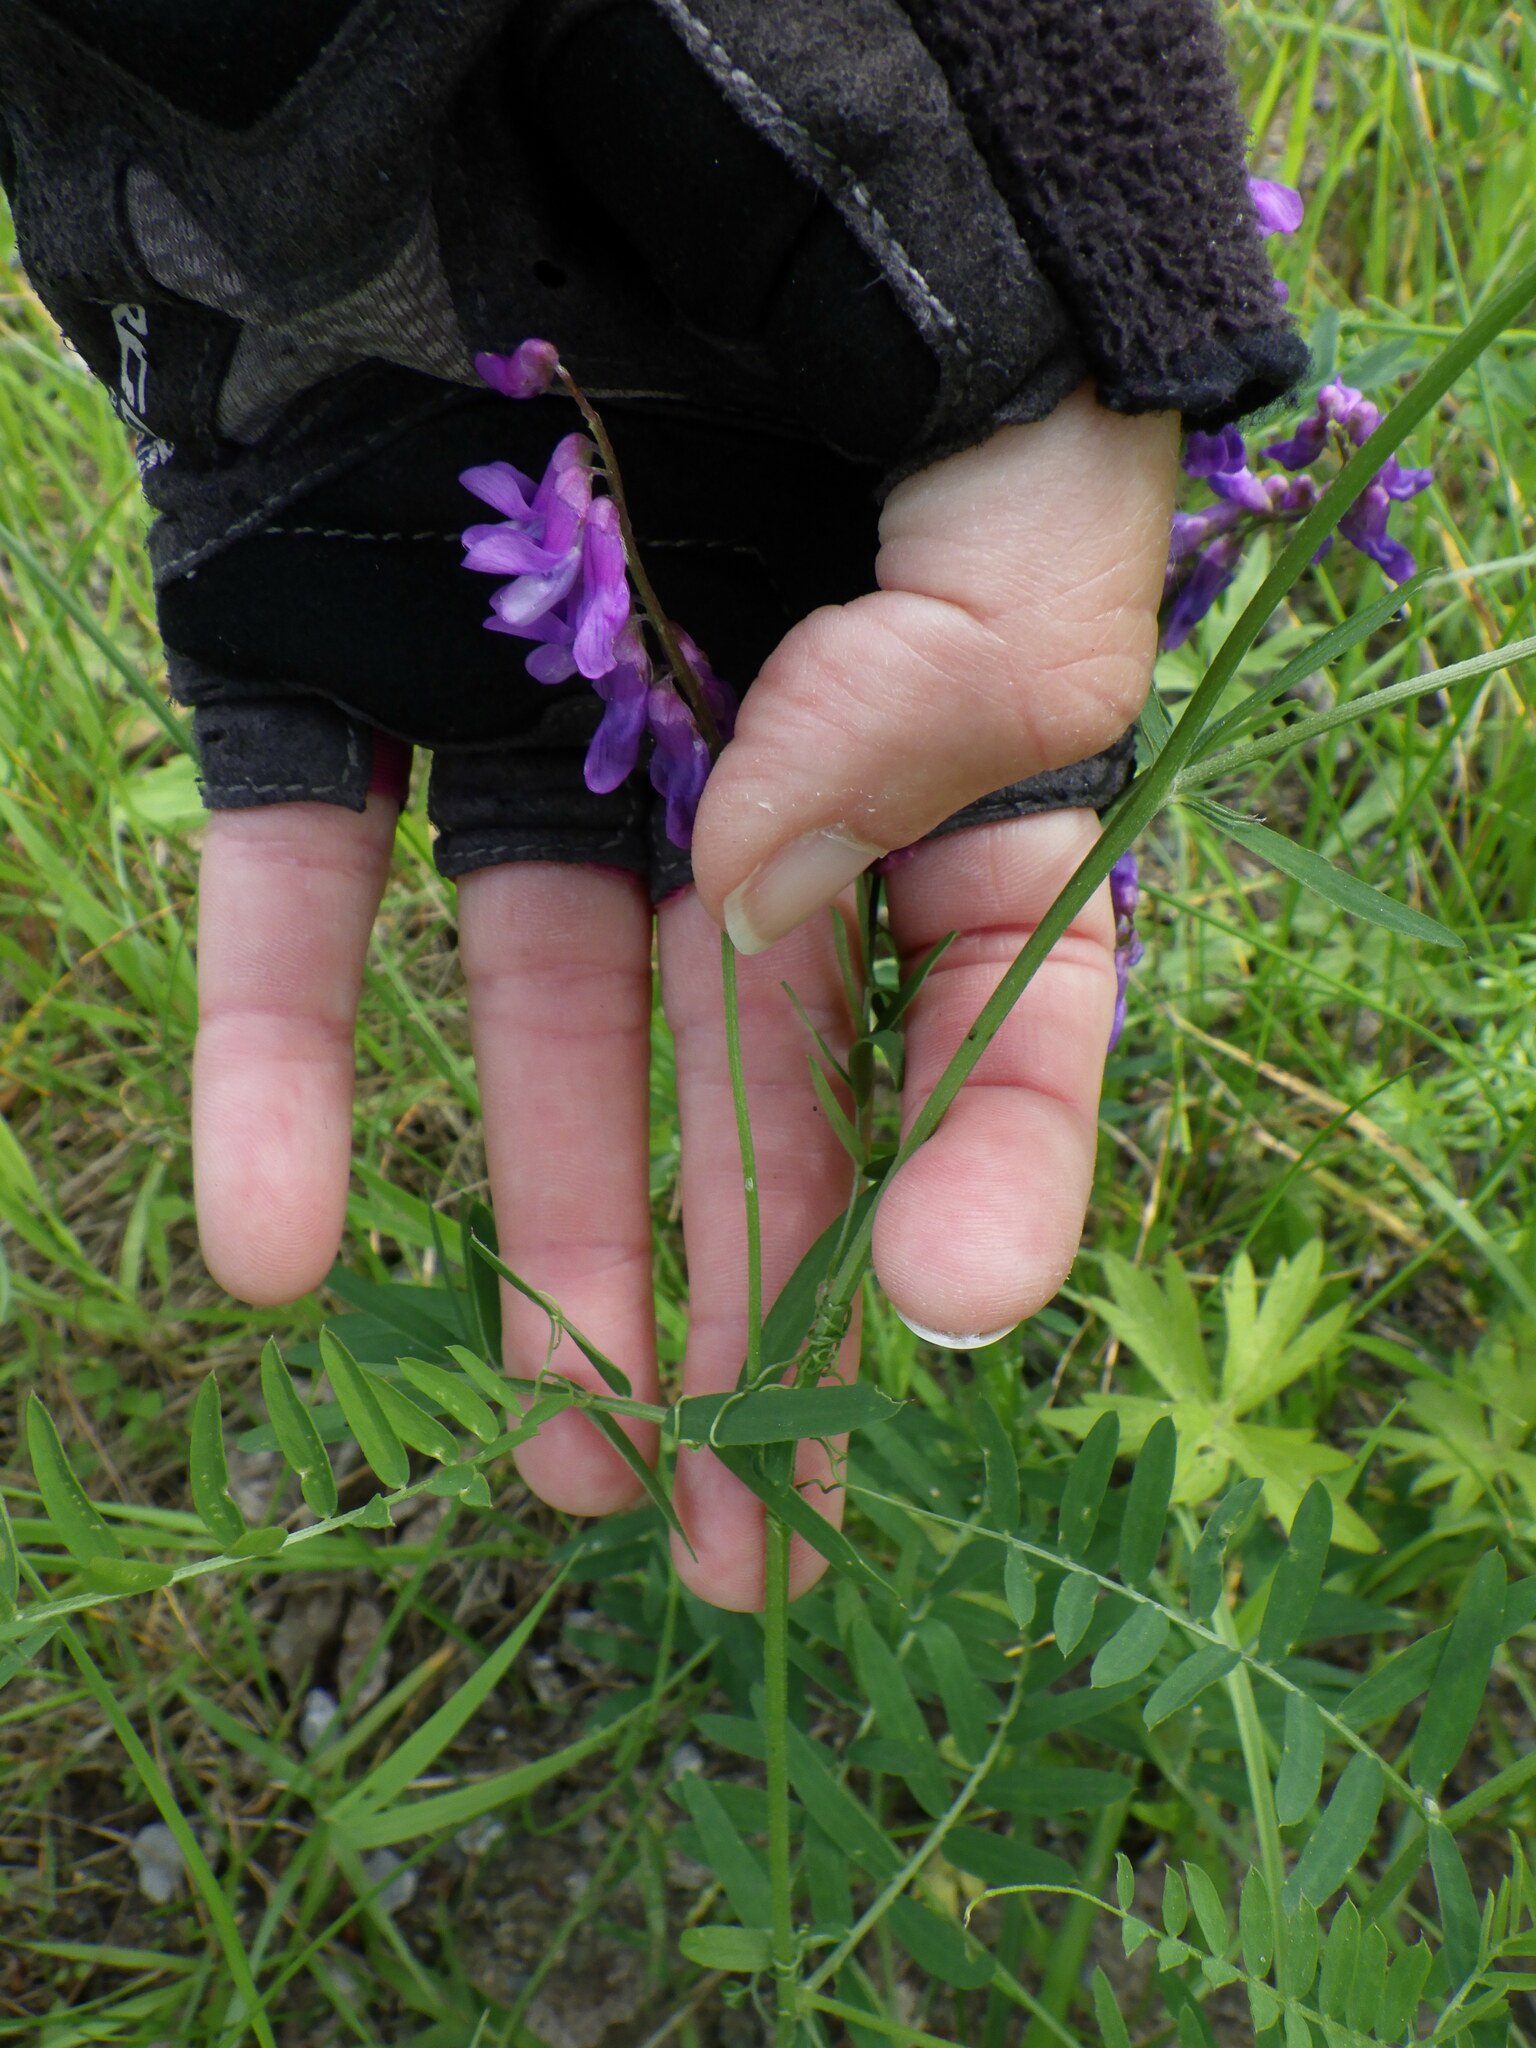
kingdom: Plantae
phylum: Tracheophyta
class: Magnoliopsida
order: Fabales
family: Fabaceae
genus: Vicia
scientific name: Vicia cracca
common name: Bird vetch
